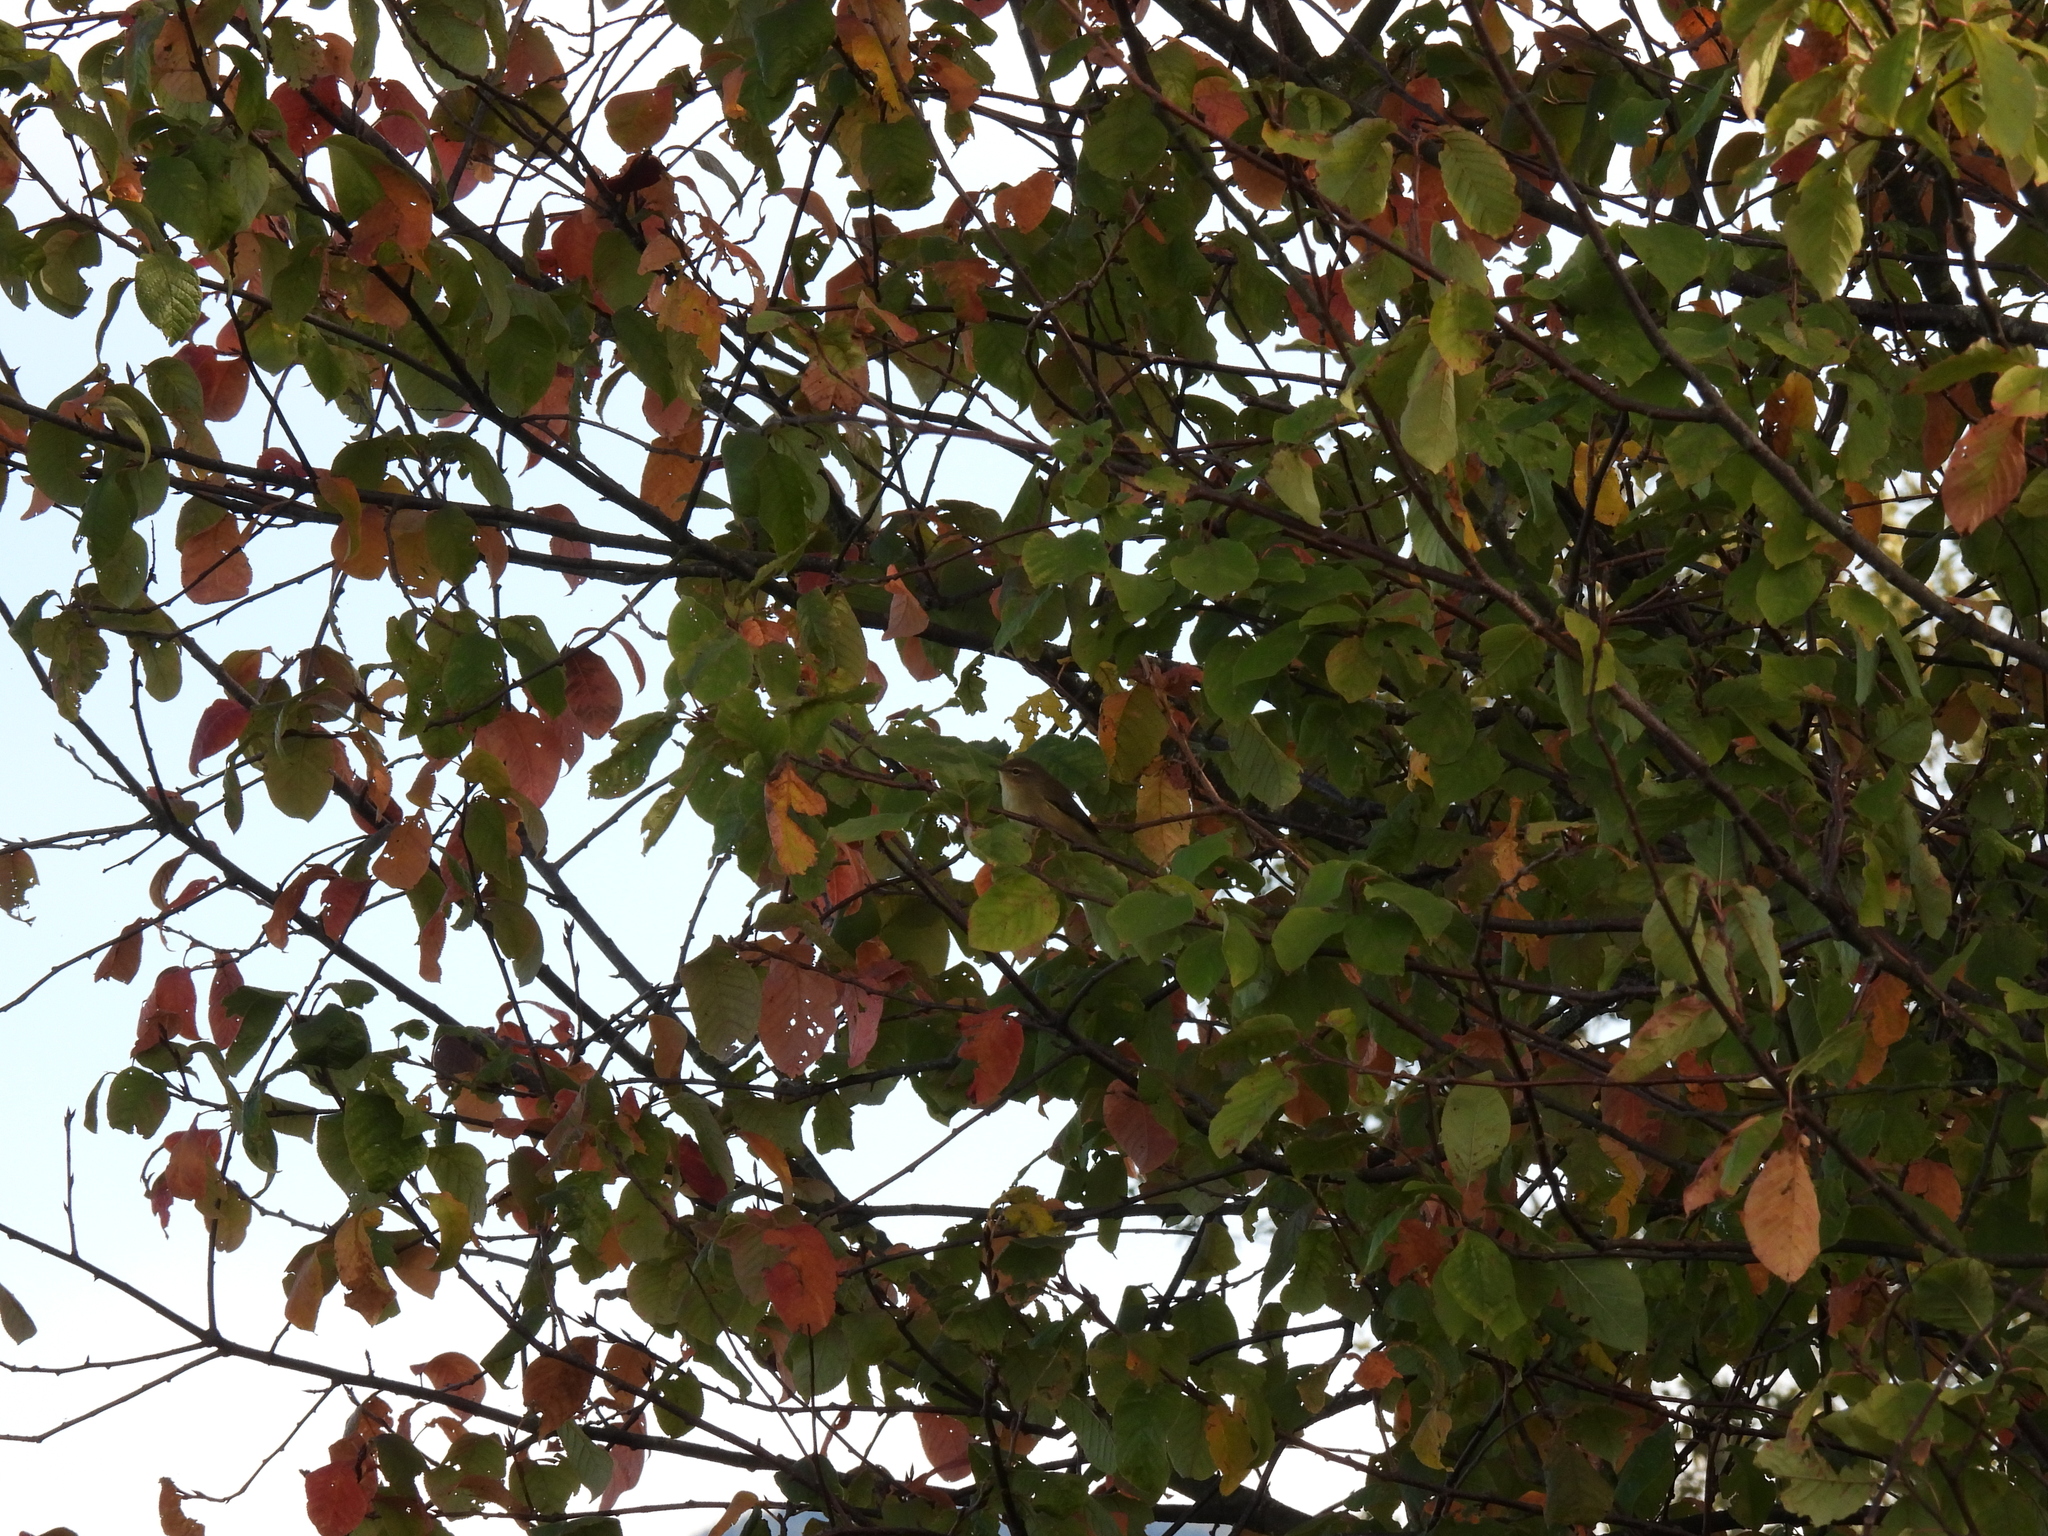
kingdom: Animalia
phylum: Chordata
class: Aves
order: Passeriformes
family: Phylloscopidae
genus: Phylloscopus
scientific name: Phylloscopus collybita
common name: Common chiffchaff
